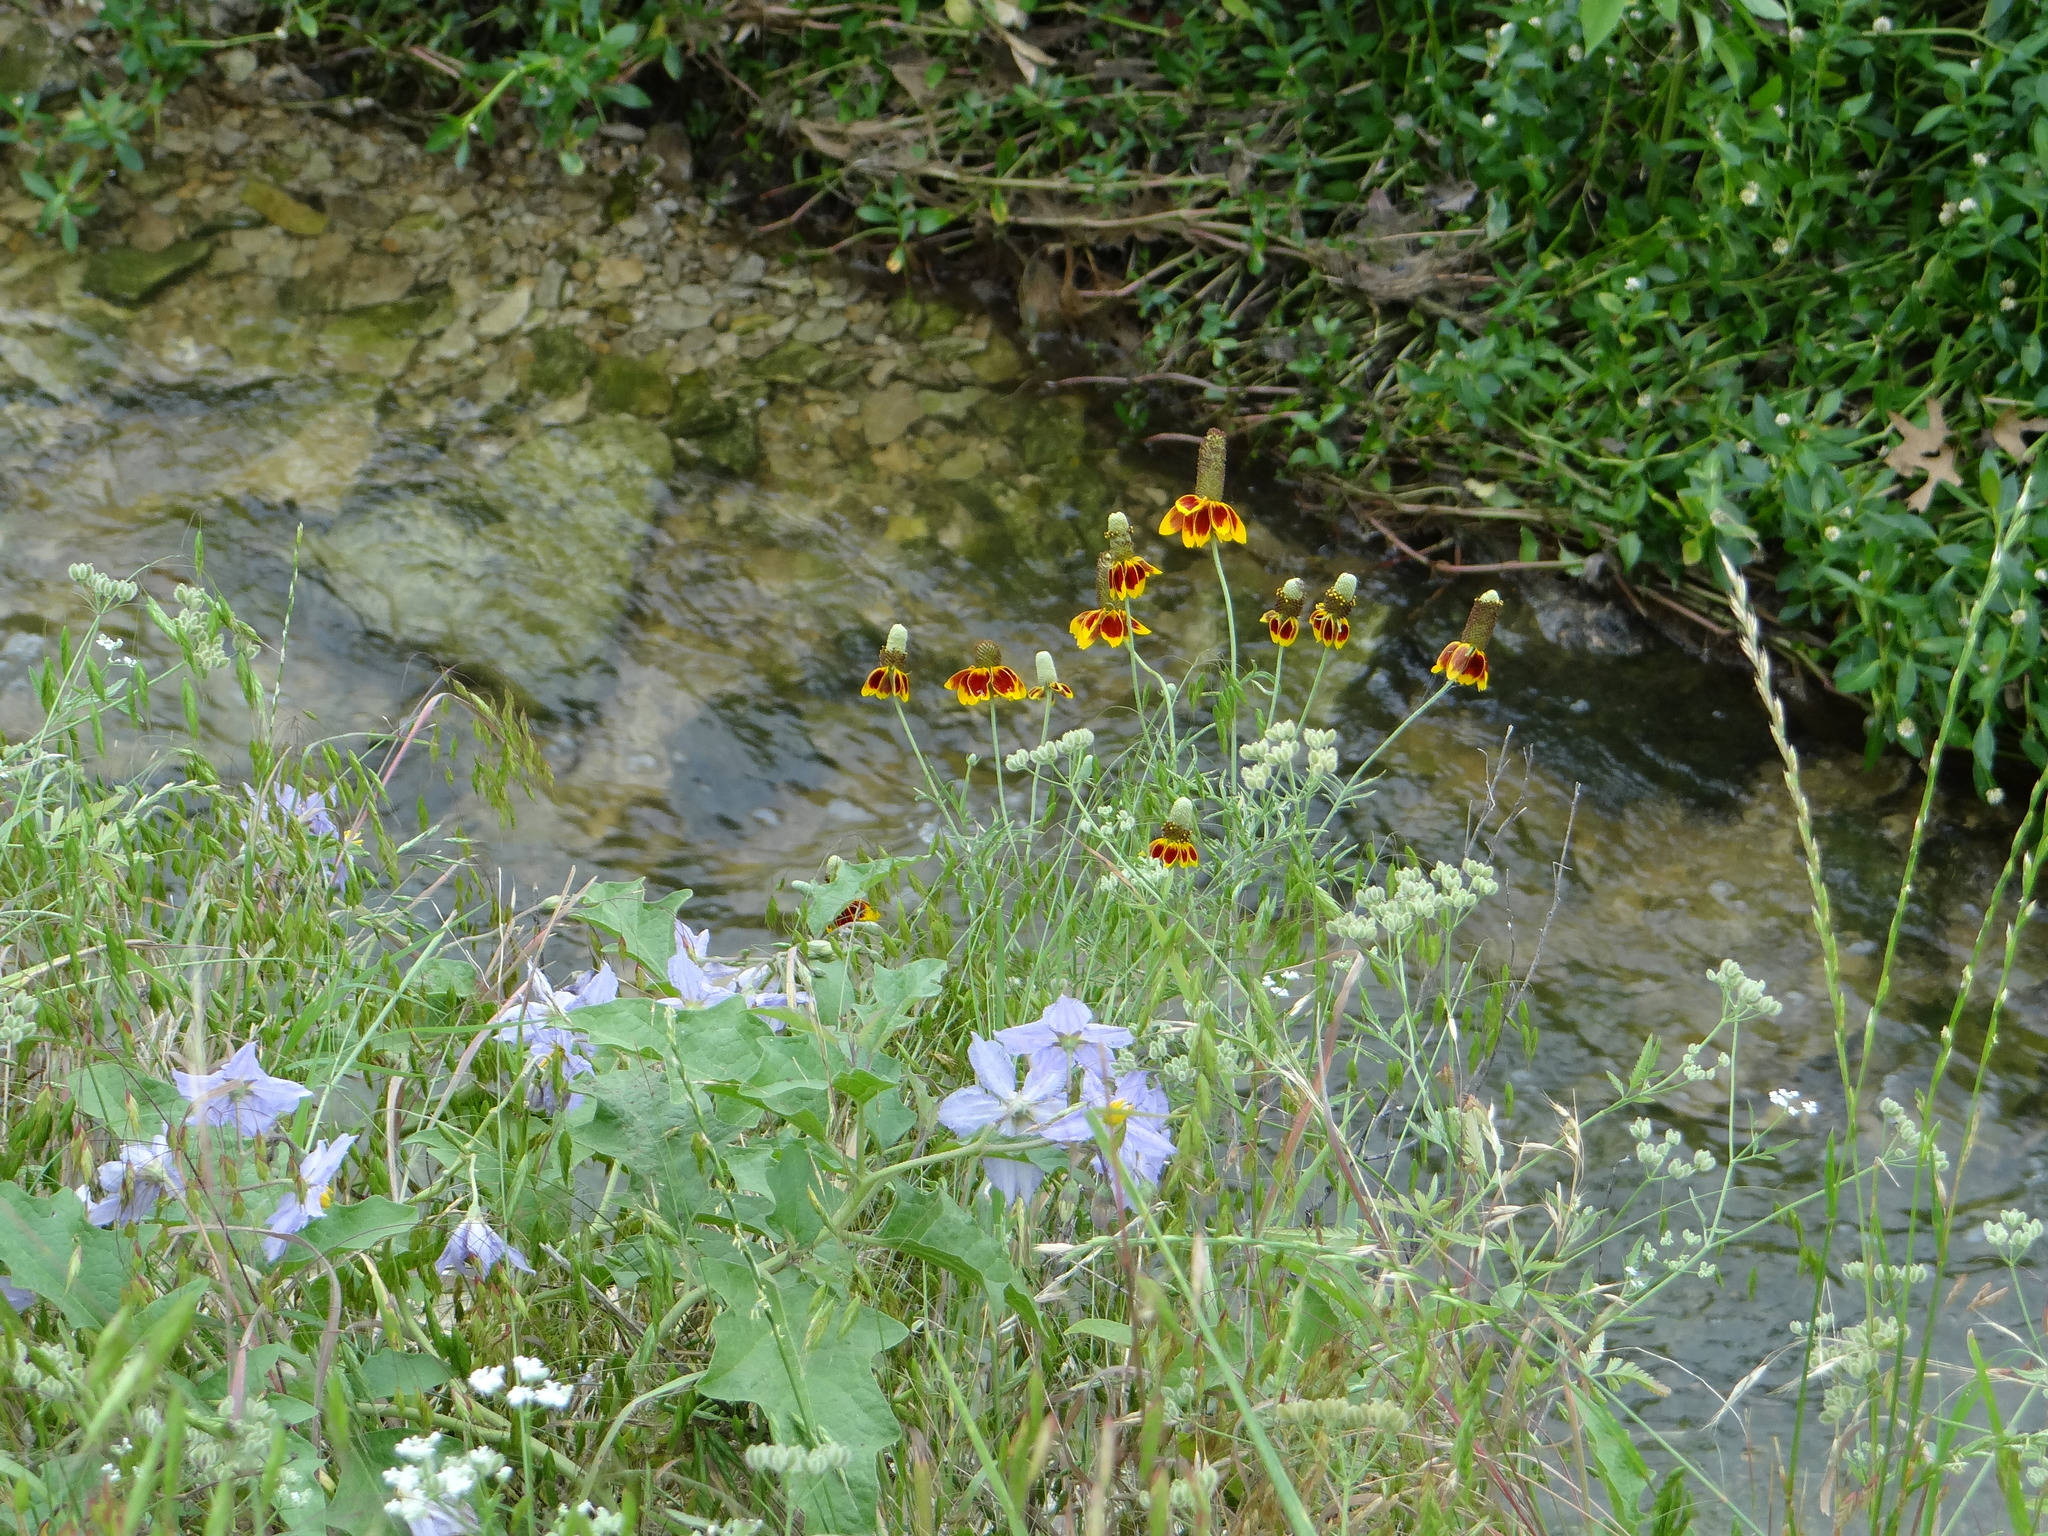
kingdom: Plantae
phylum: Tracheophyta
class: Magnoliopsida
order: Asterales
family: Asteraceae
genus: Ratibida
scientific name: Ratibida columnifera
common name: Prairie coneflower
